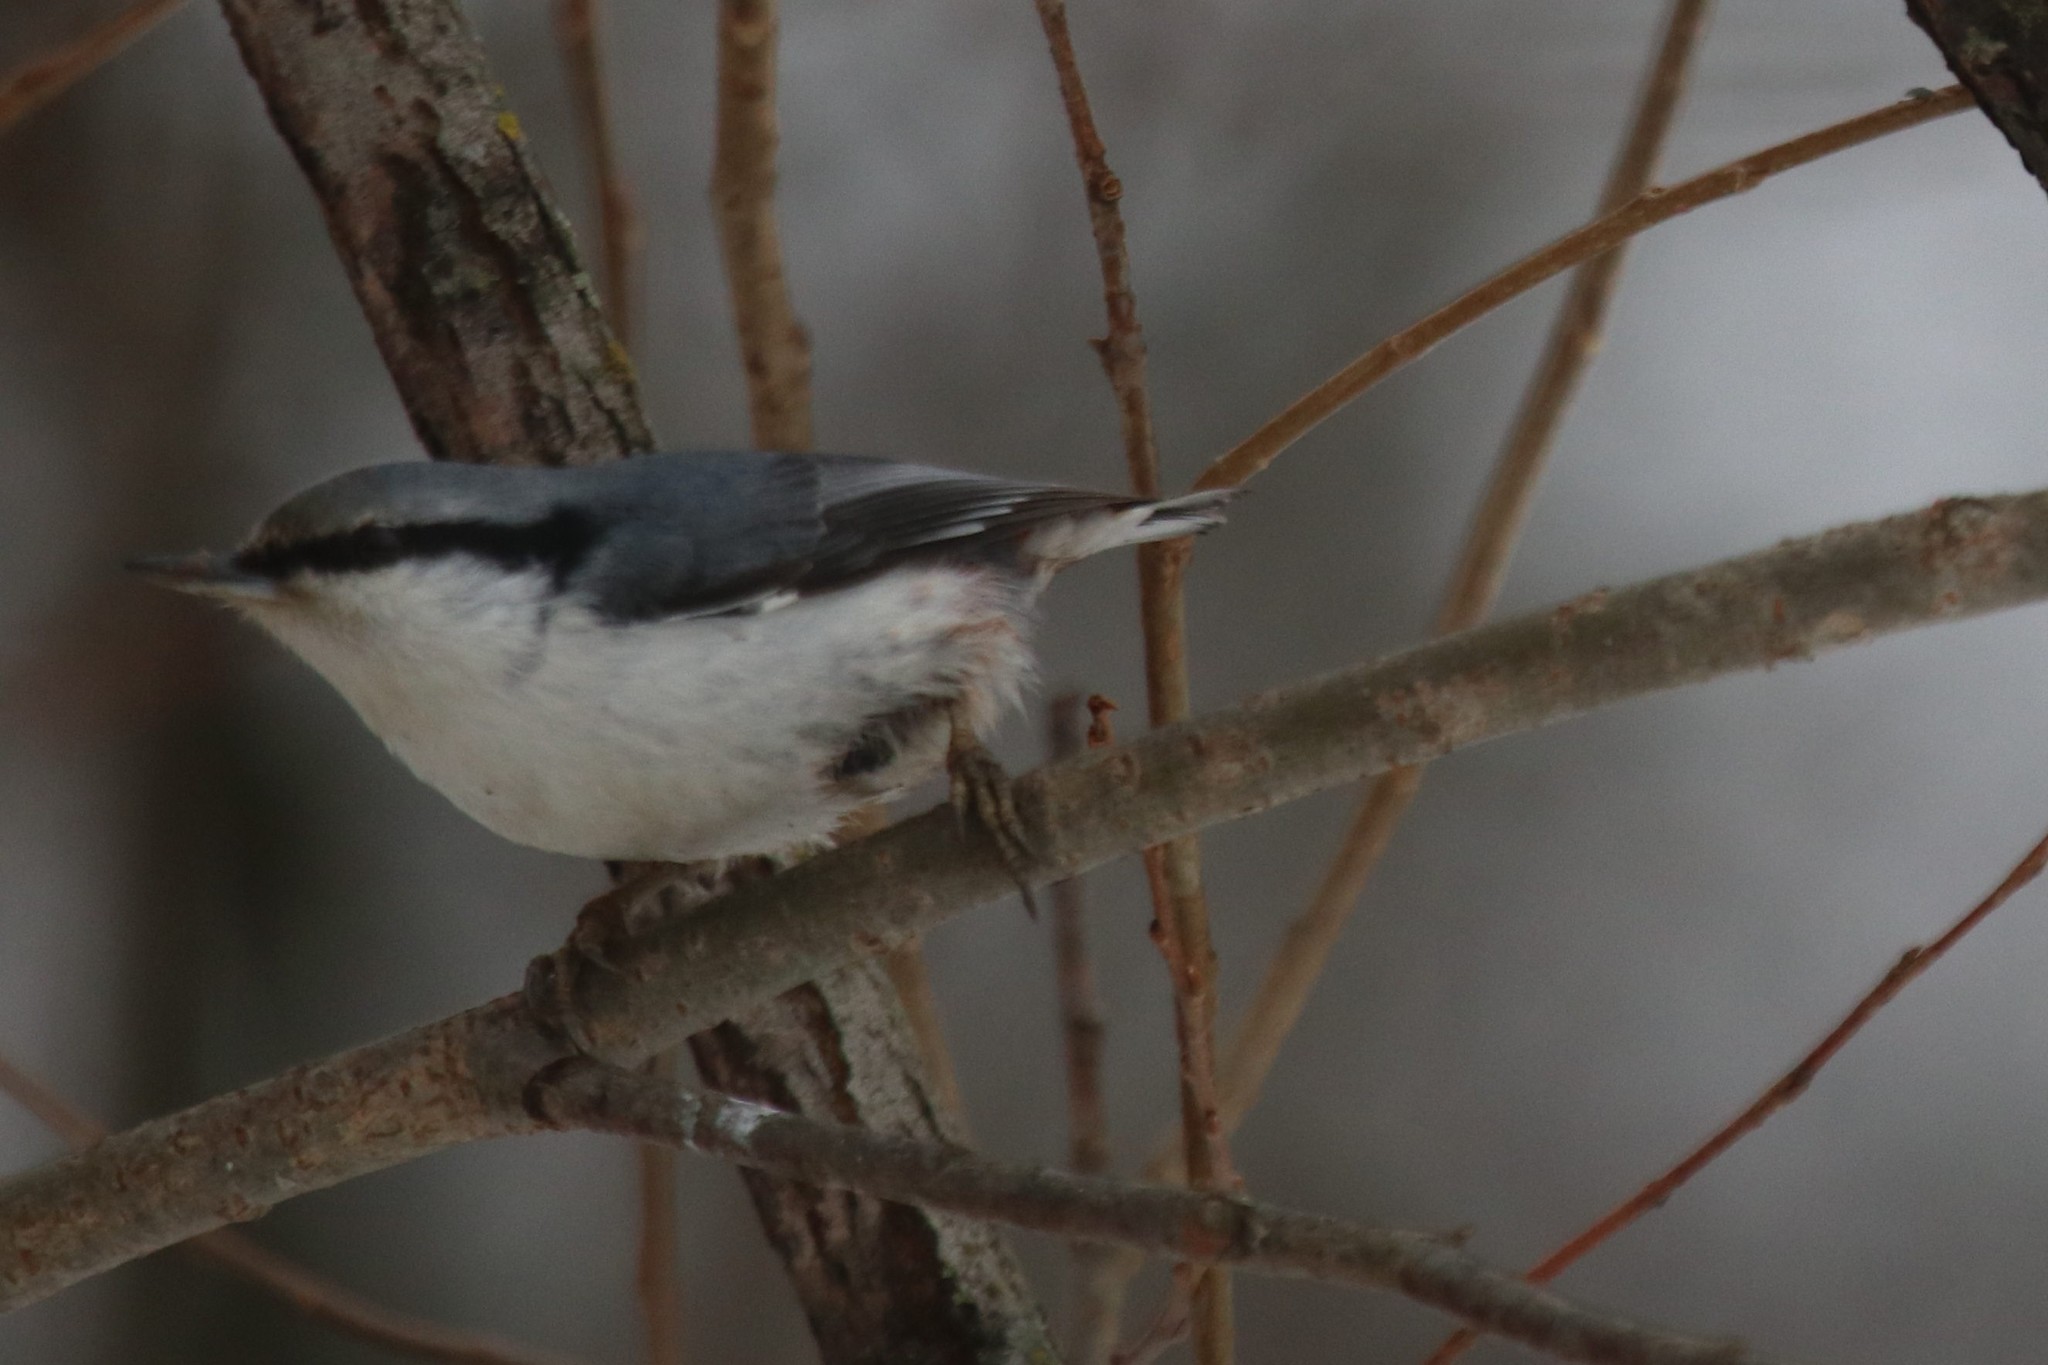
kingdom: Animalia
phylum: Chordata
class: Aves
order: Passeriformes
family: Sittidae
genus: Sitta
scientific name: Sitta europaea
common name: Eurasian nuthatch
